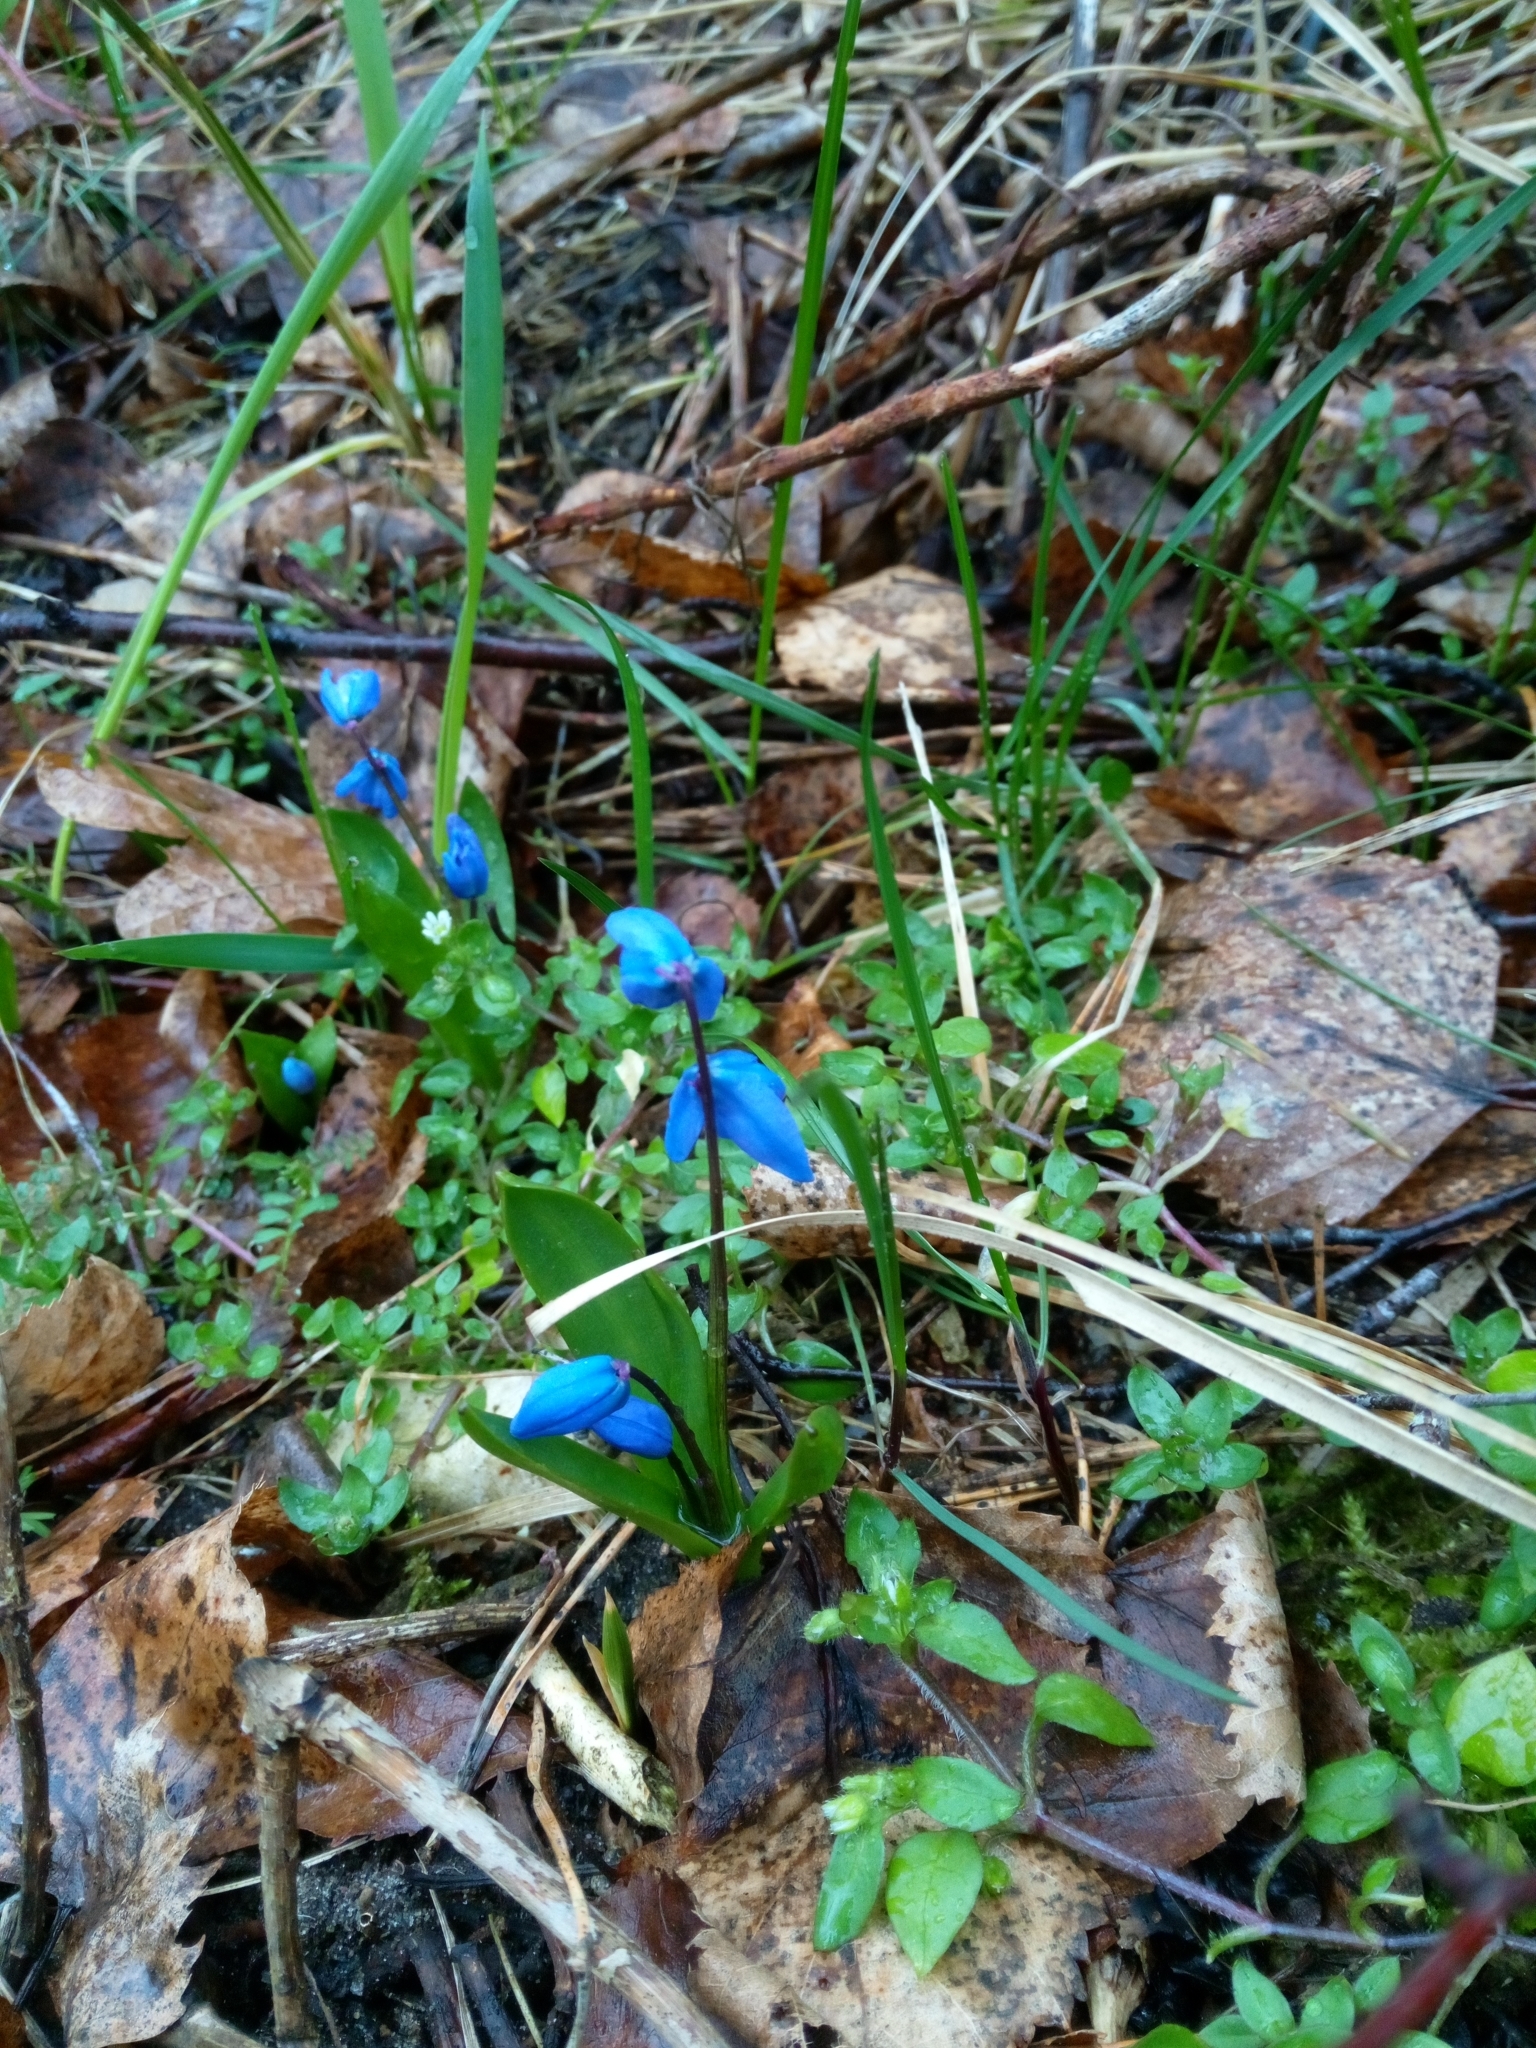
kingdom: Plantae
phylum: Tracheophyta
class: Liliopsida
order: Asparagales
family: Asparagaceae
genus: Scilla
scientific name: Scilla siberica
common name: Siberian squill
